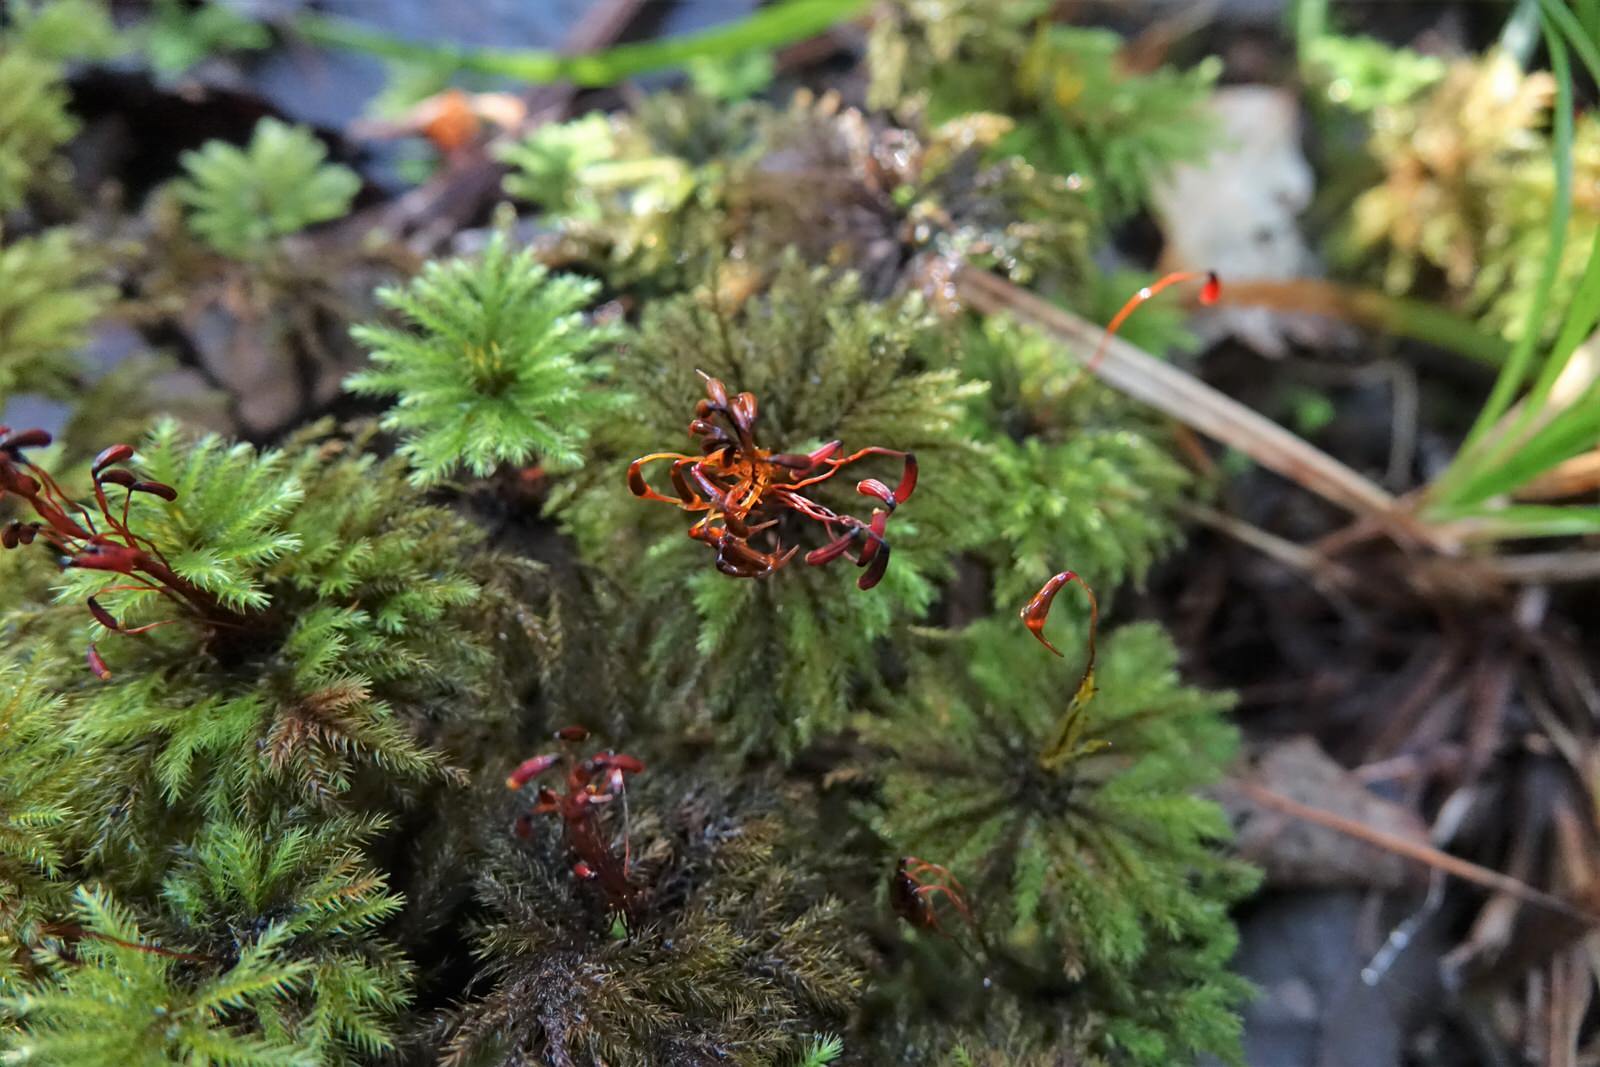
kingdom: Plantae
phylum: Bryophyta
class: Bryopsida
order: Hypopterygiales
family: Hypopterygiaceae
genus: Dendrohypopterygium
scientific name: Dendrohypopterygium filiculiforme
